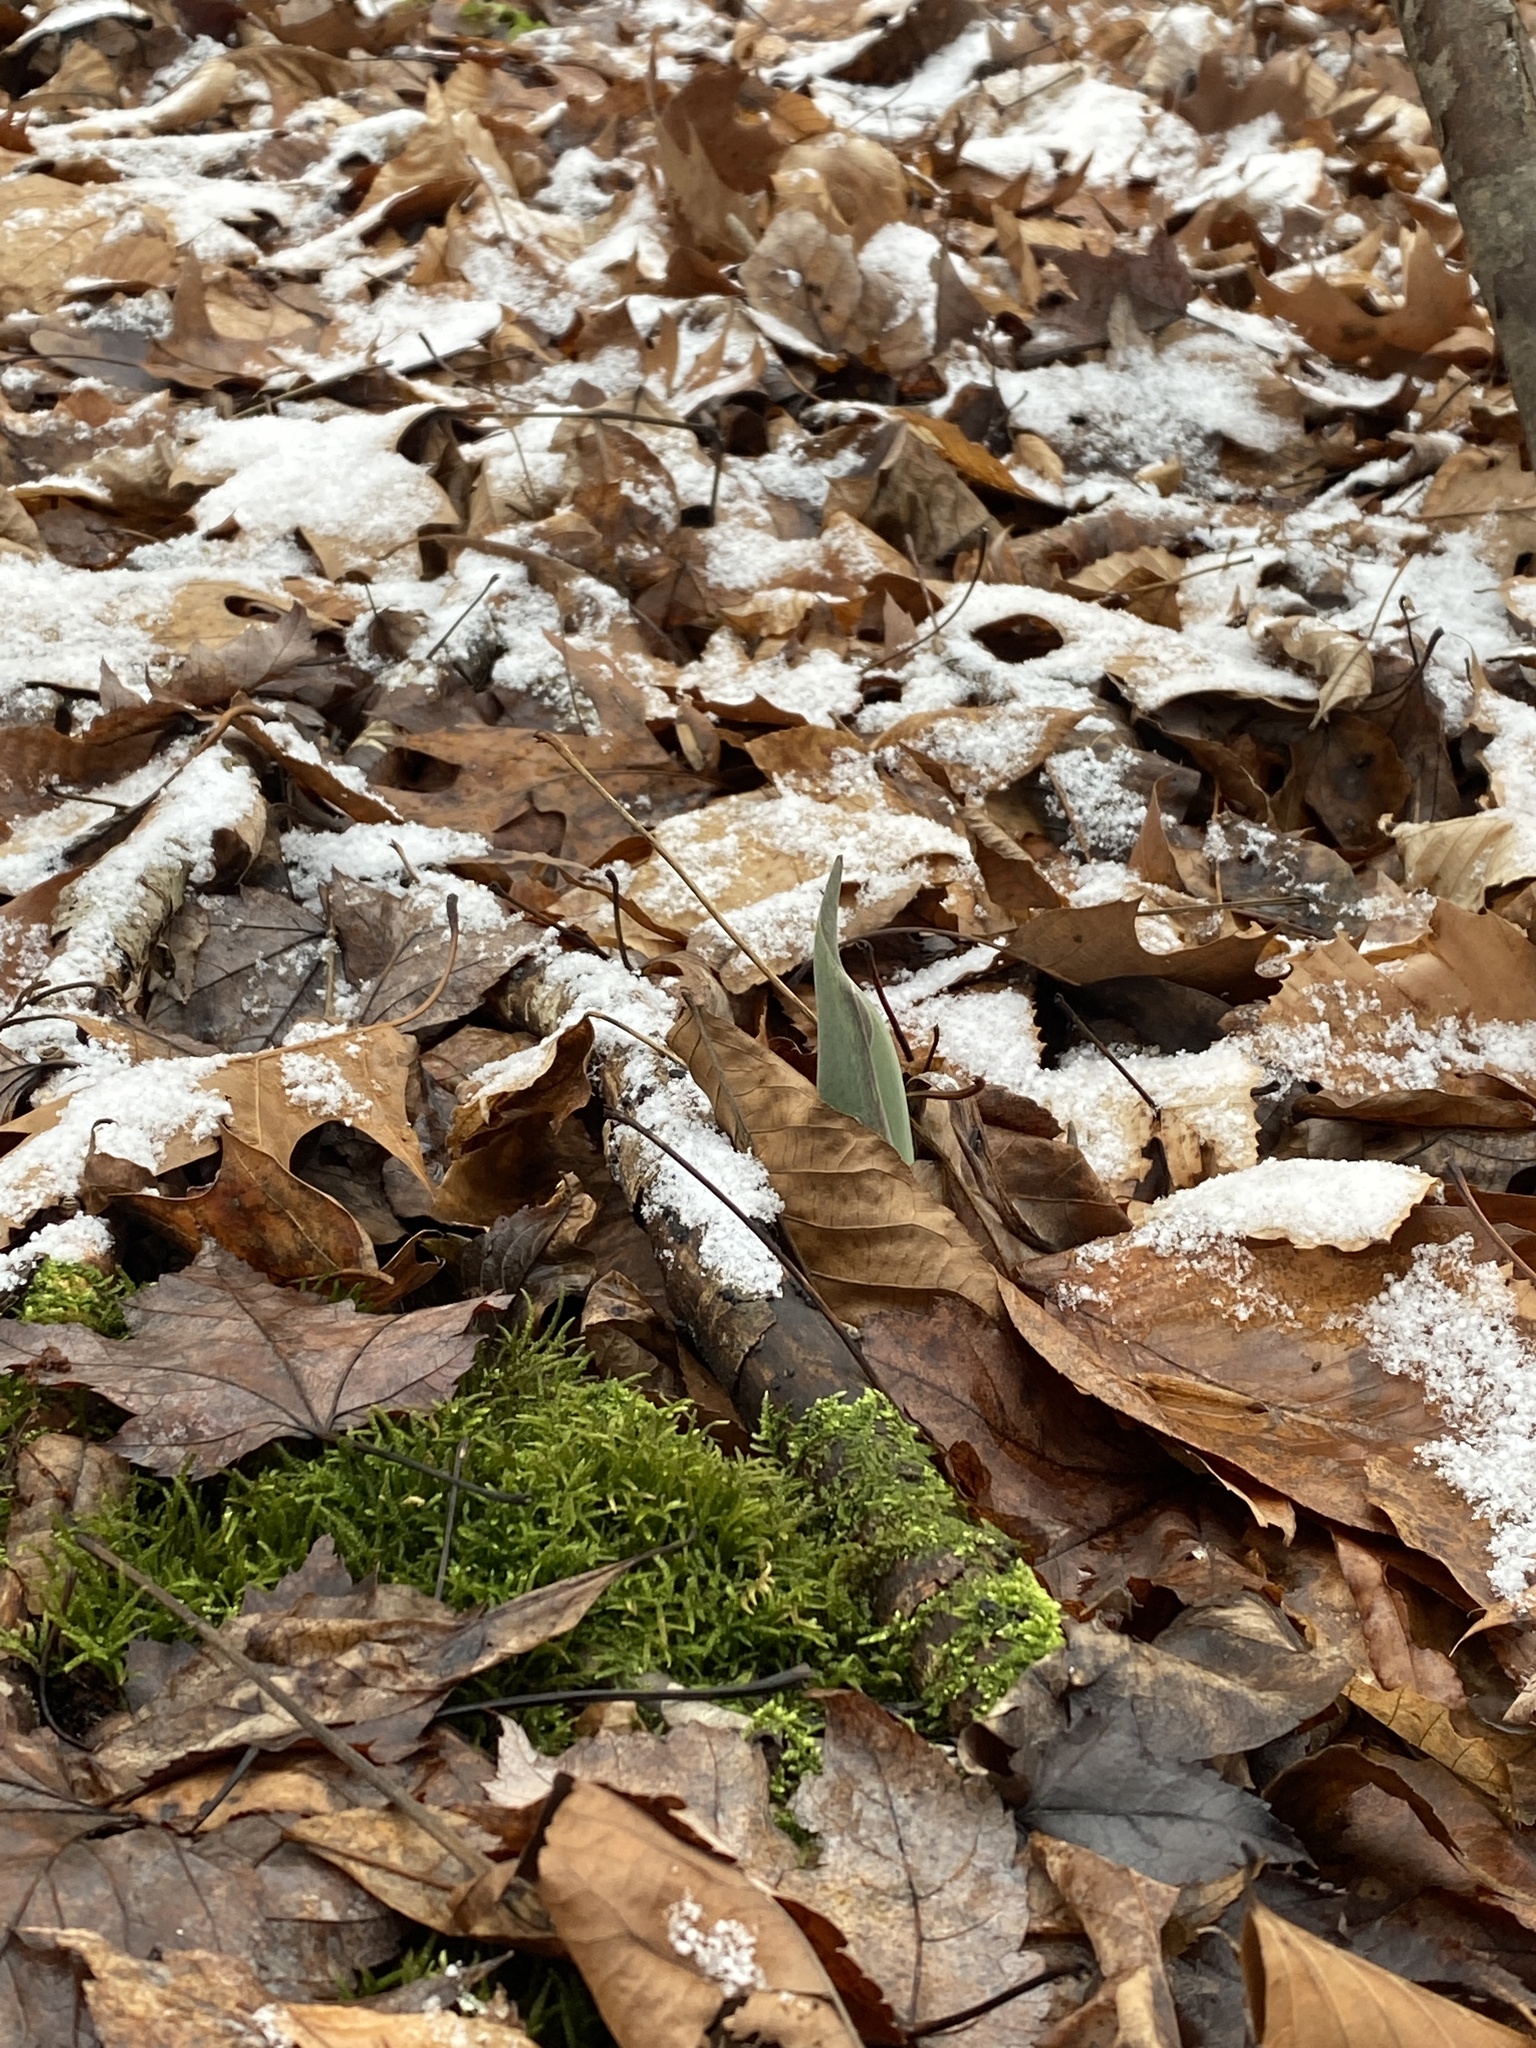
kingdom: Plantae
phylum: Tracheophyta
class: Liliopsida
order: Alismatales
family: Araceae
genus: Symplocarpus
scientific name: Symplocarpus foetidus
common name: Eastern skunk cabbage
